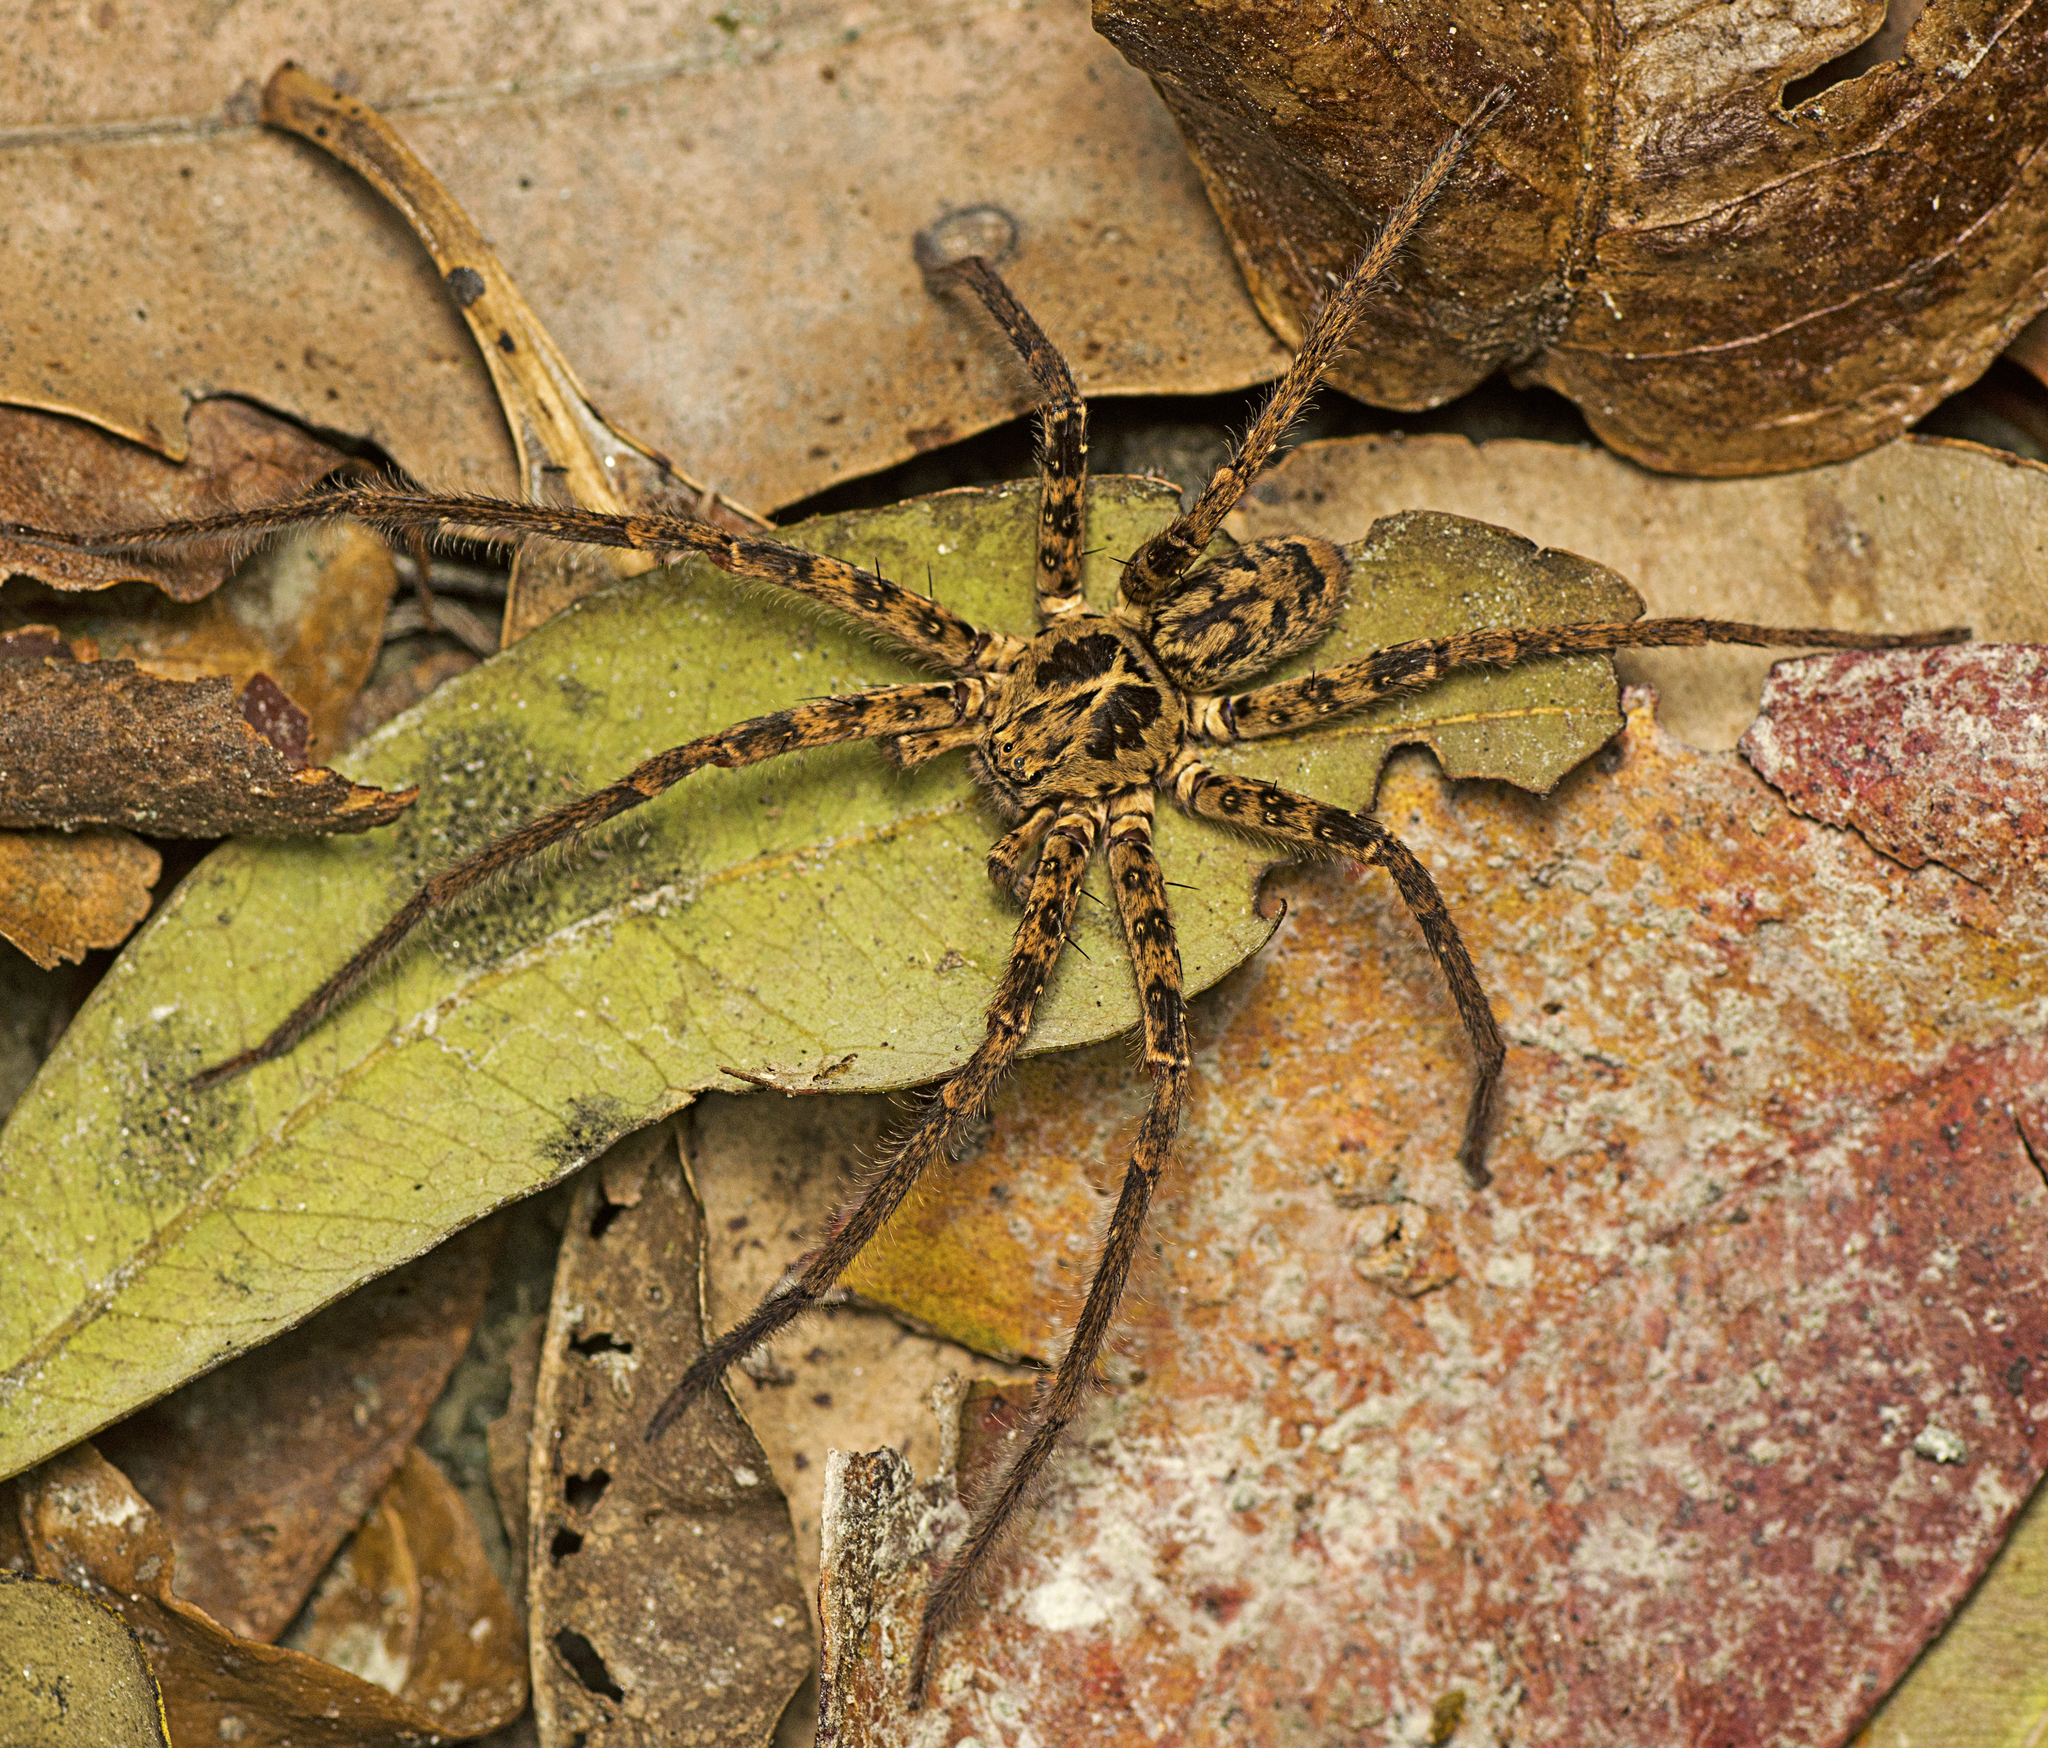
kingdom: Animalia
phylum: Arthropoda
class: Arachnida
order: Araneae
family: Sparassidae
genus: Heteropoda
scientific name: Heteropoda hillerae
